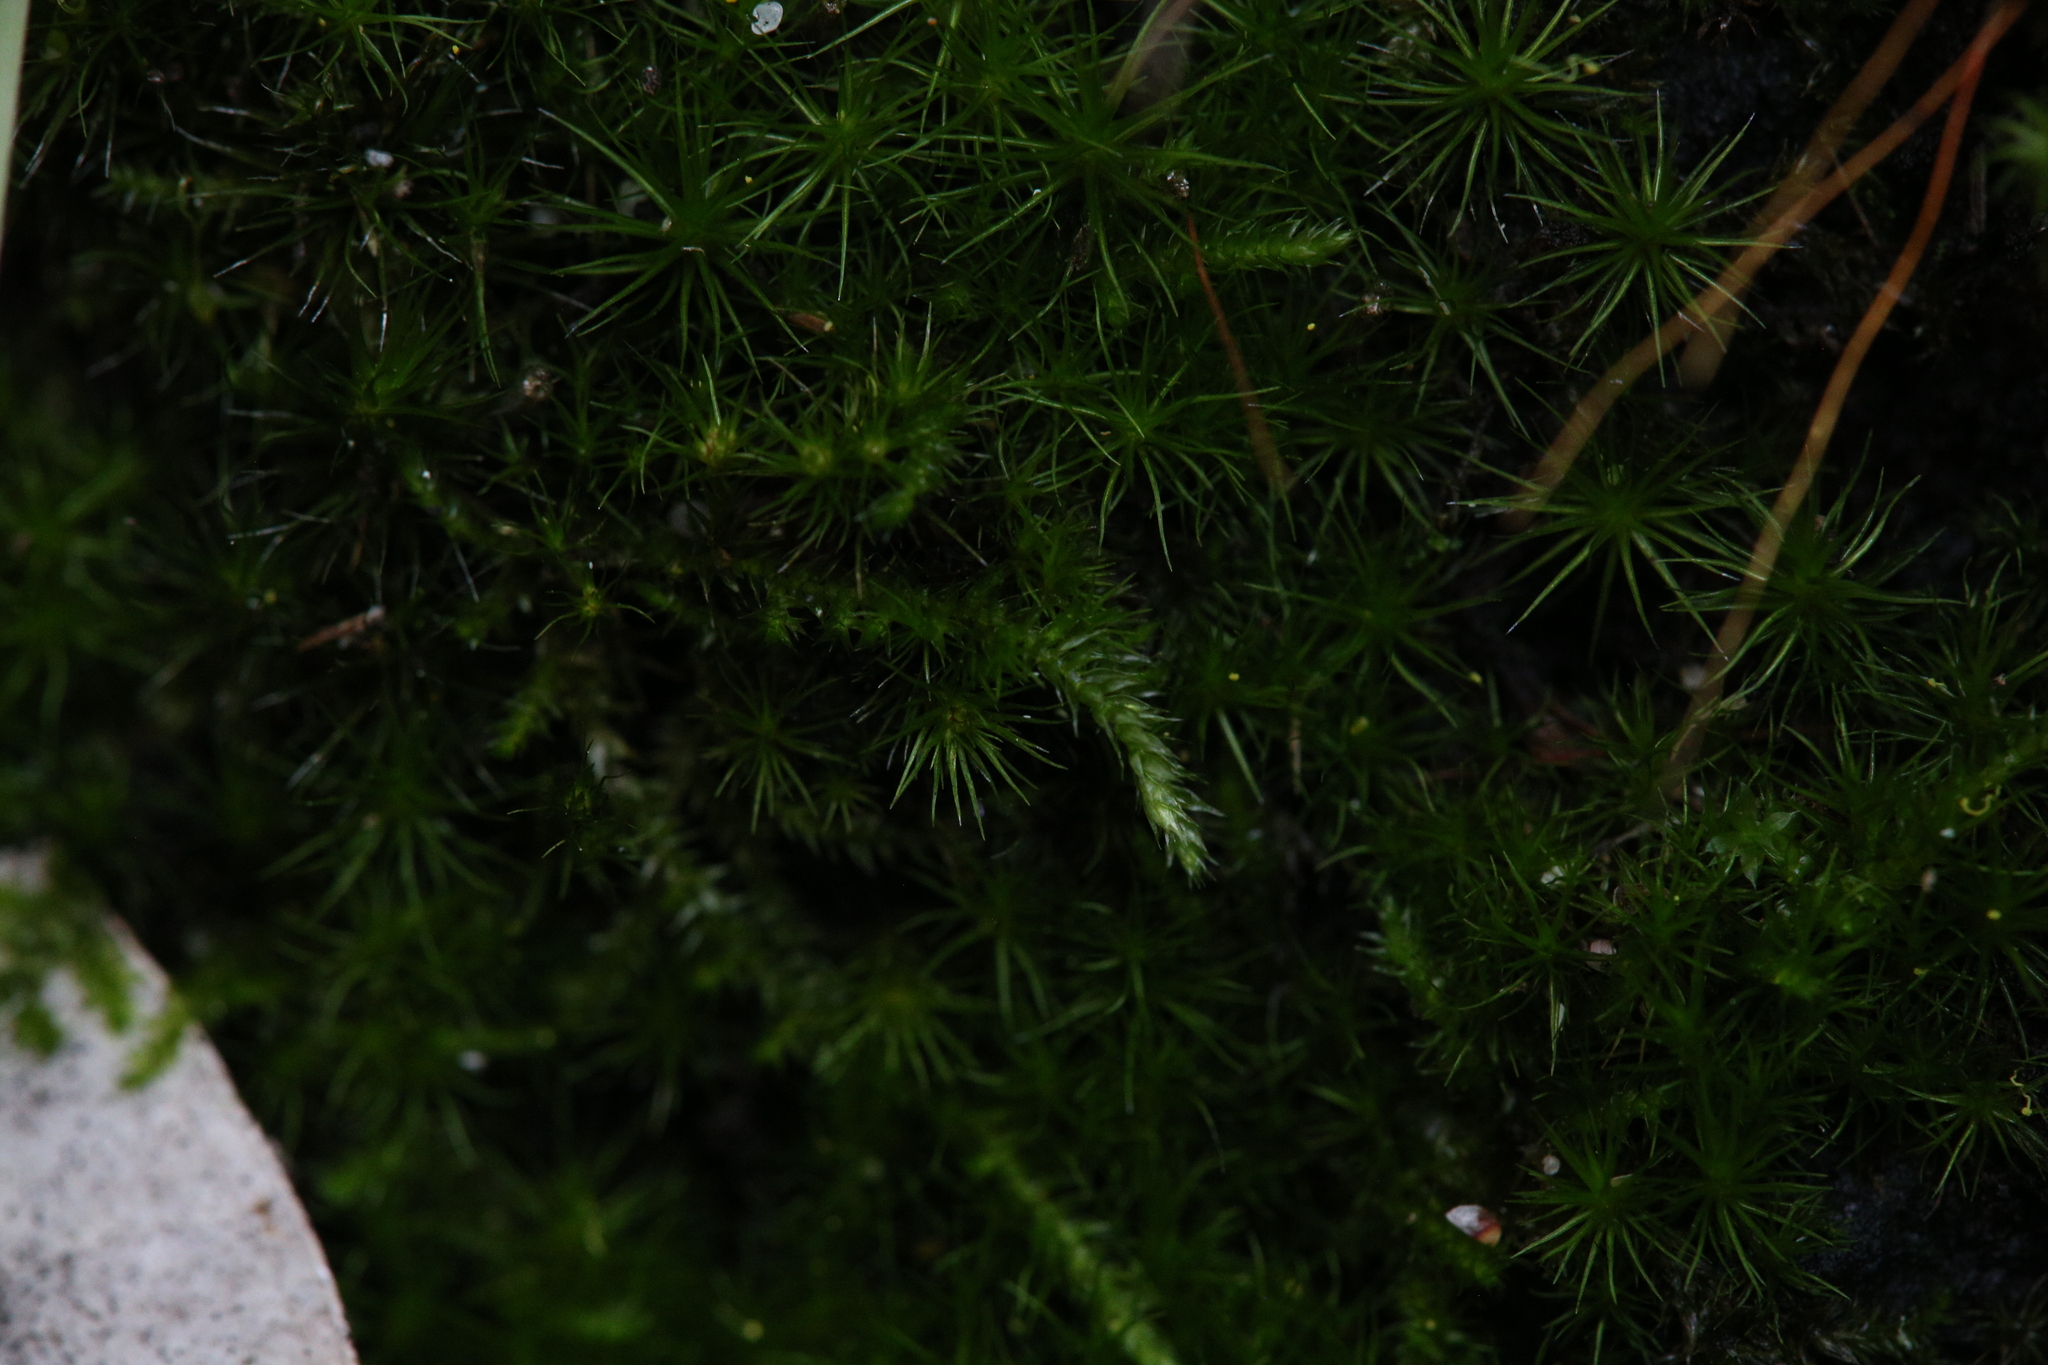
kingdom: Plantae
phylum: Bryophyta
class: Bryopsida
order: Hypnodendrales
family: Racopilaceae
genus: Racopilum
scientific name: Racopilum cuspidigerum
